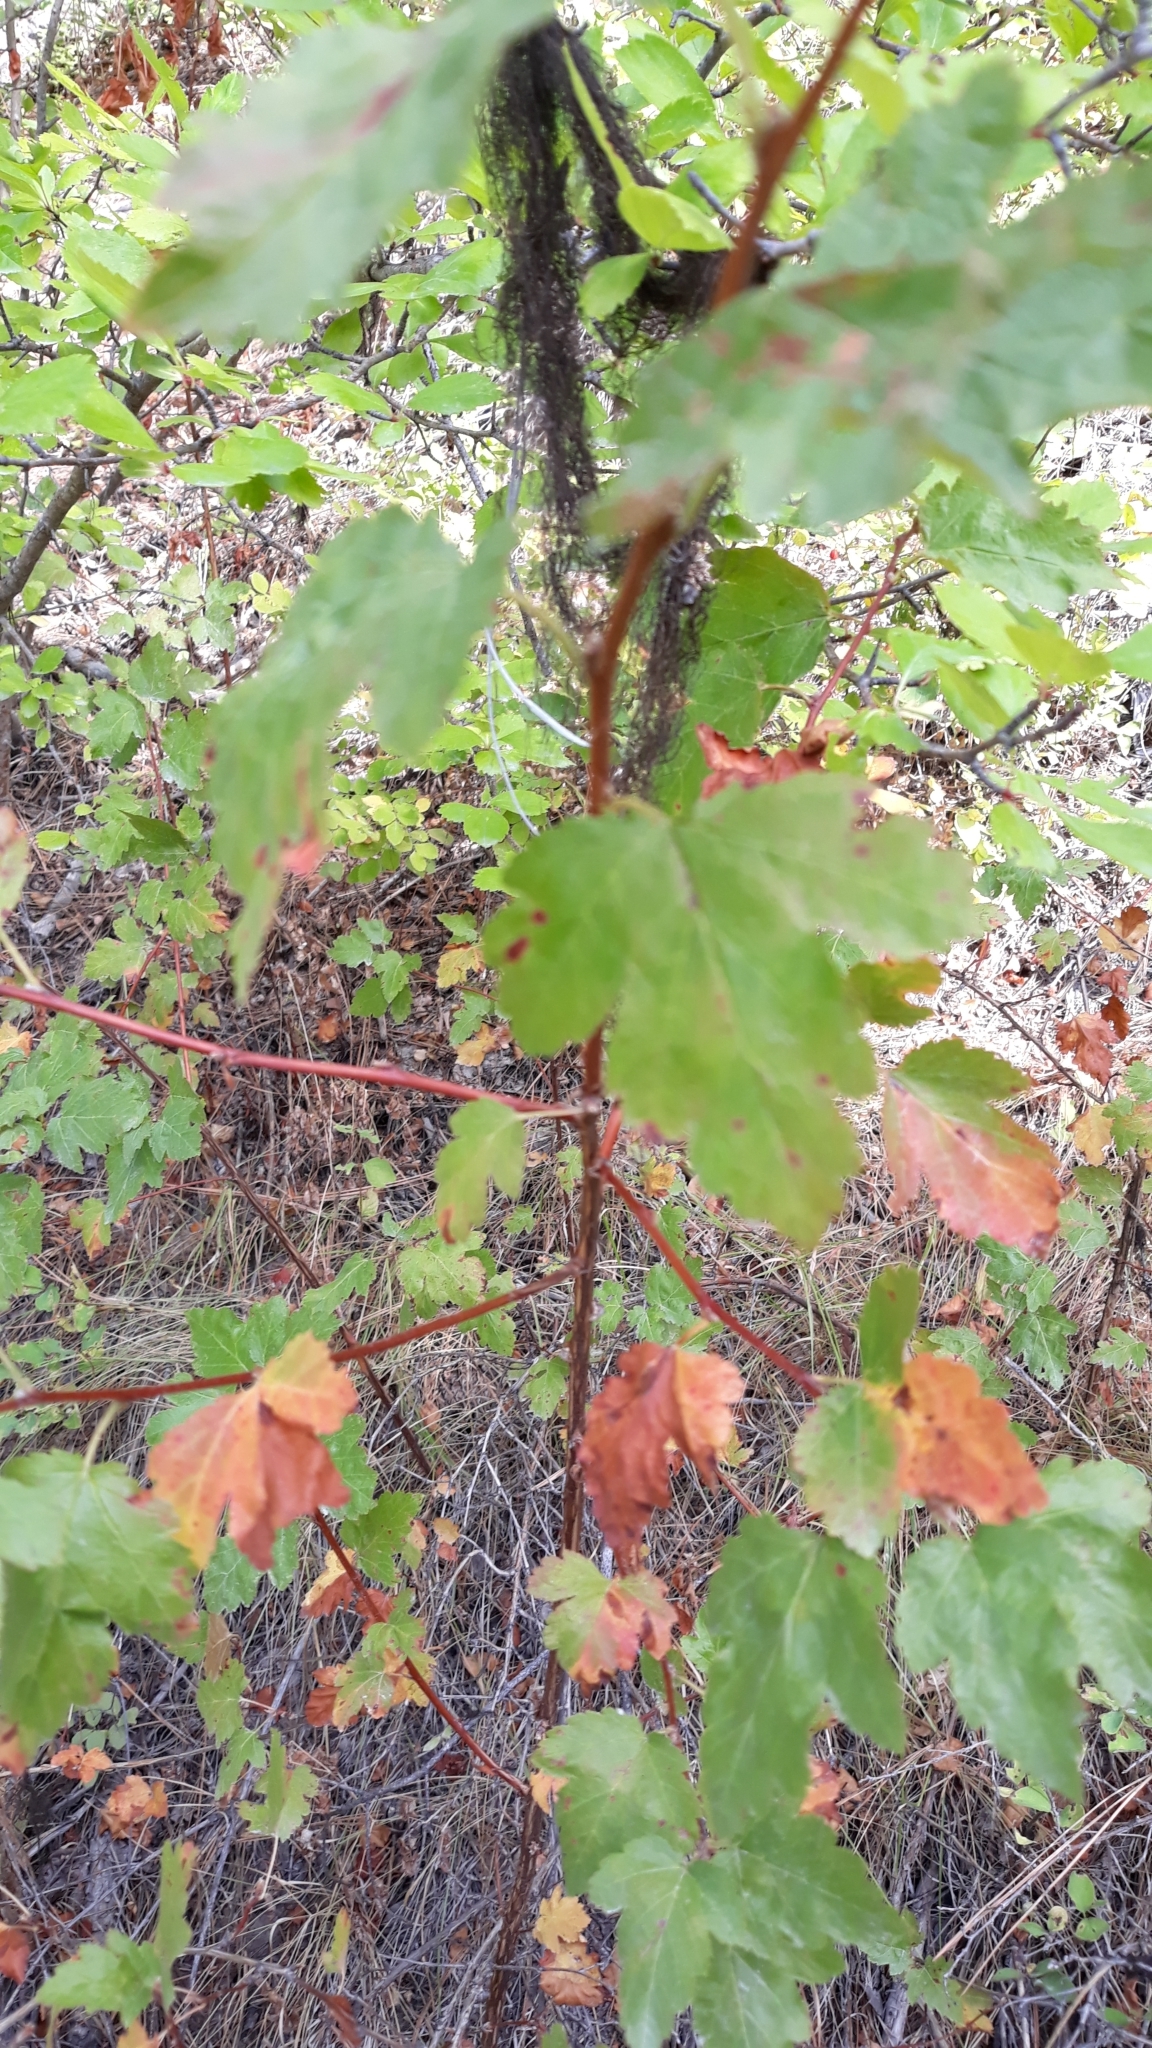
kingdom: Plantae
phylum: Tracheophyta
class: Magnoliopsida
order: Sapindales
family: Sapindaceae
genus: Acer
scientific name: Acer glabrum
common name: Rocky mountain maple
